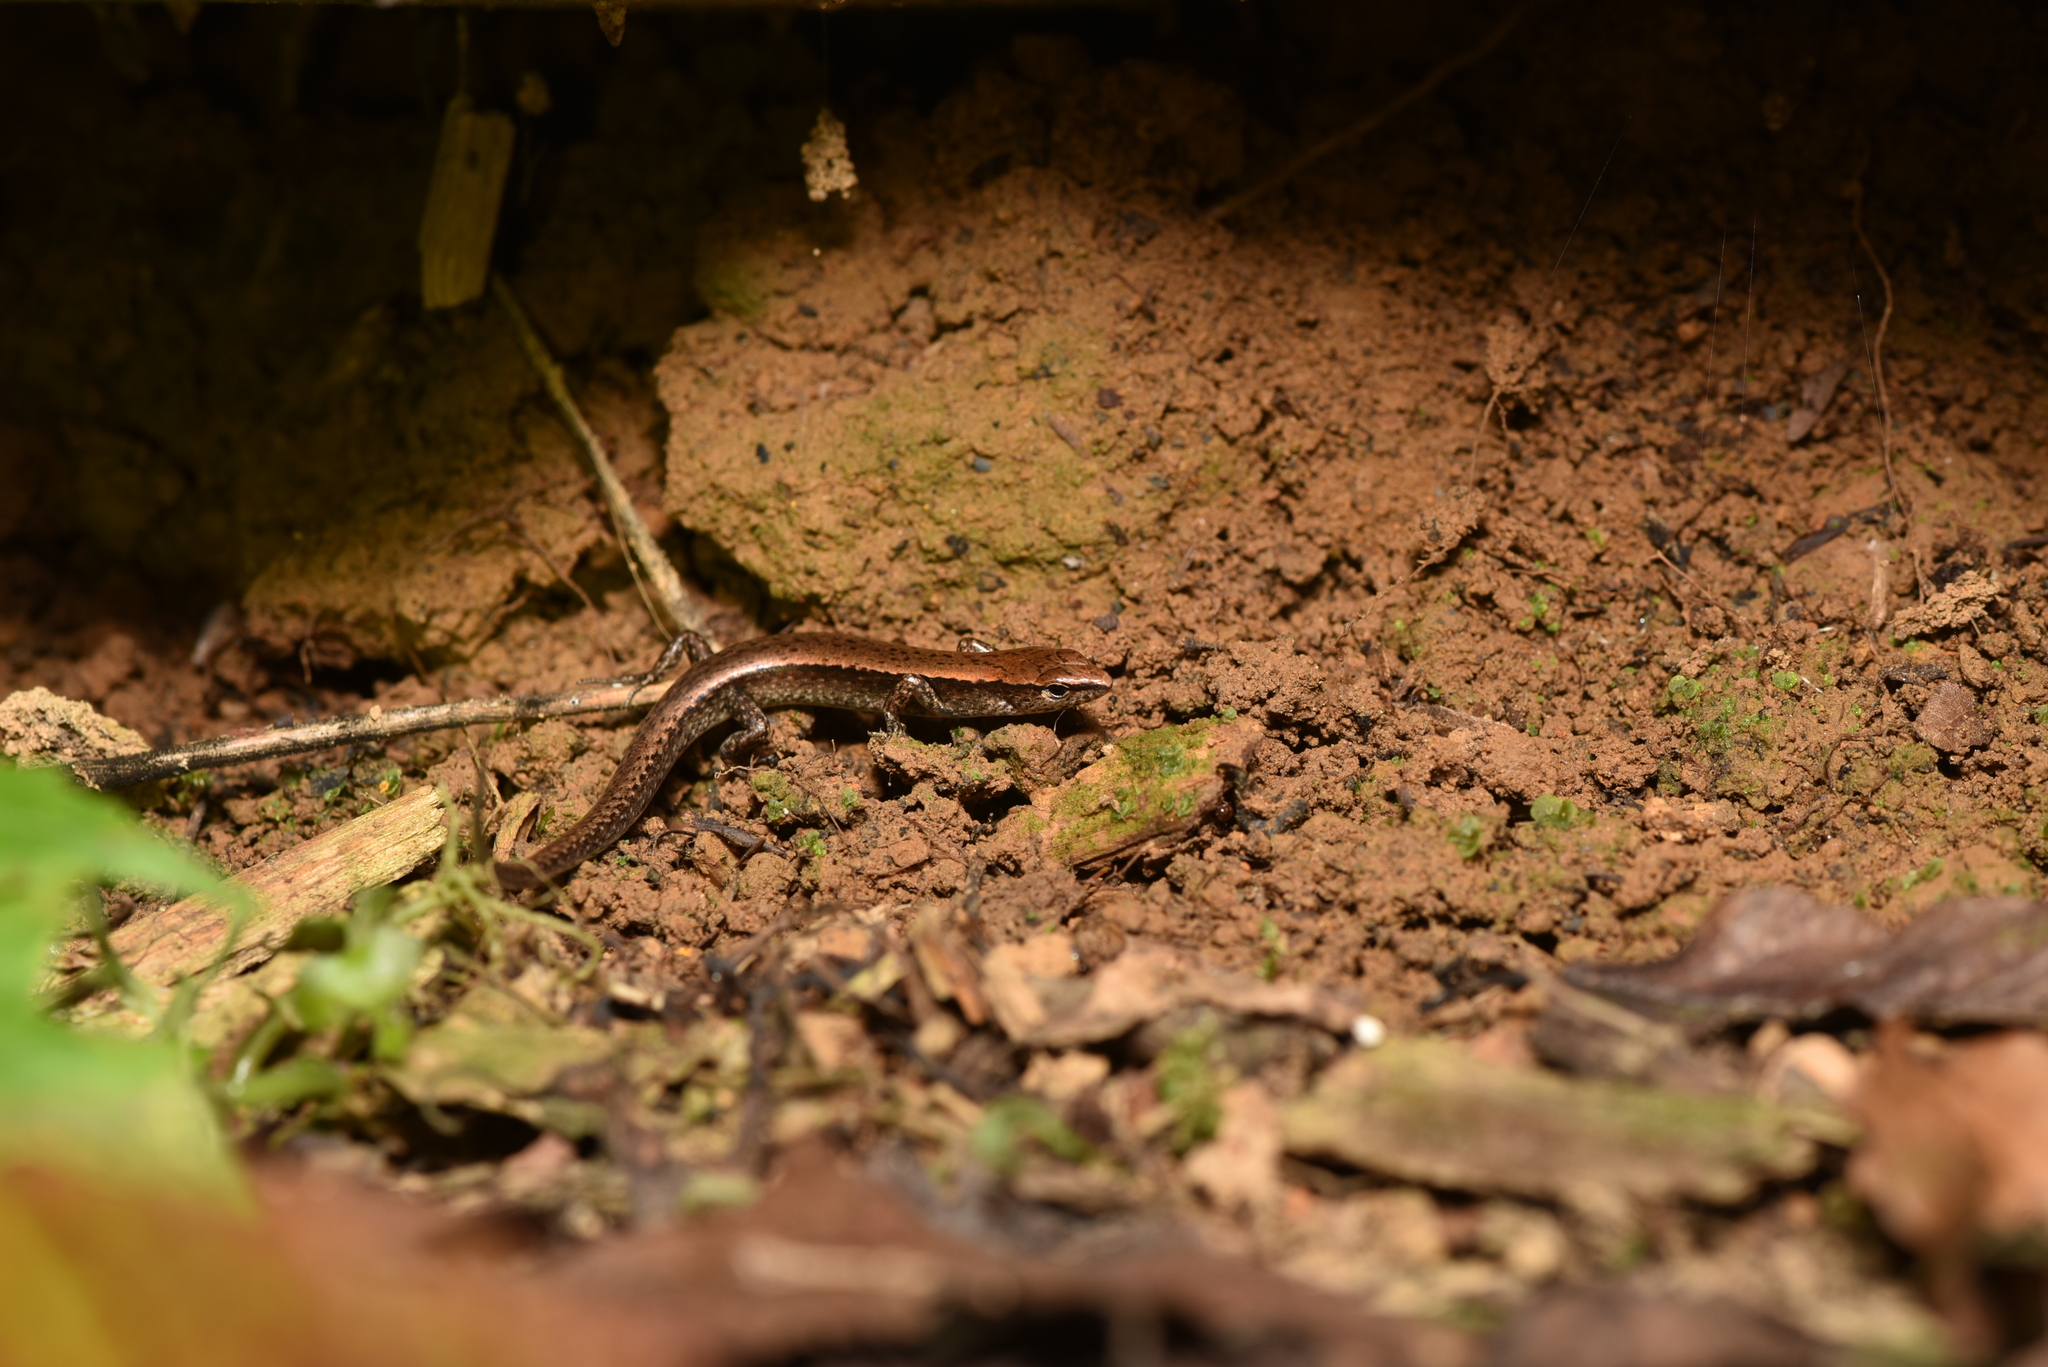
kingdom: Animalia
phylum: Chordata
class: Squamata
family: Scincidae
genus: Scincella
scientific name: Scincella formosensis
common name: Van denburgh's ground skink
